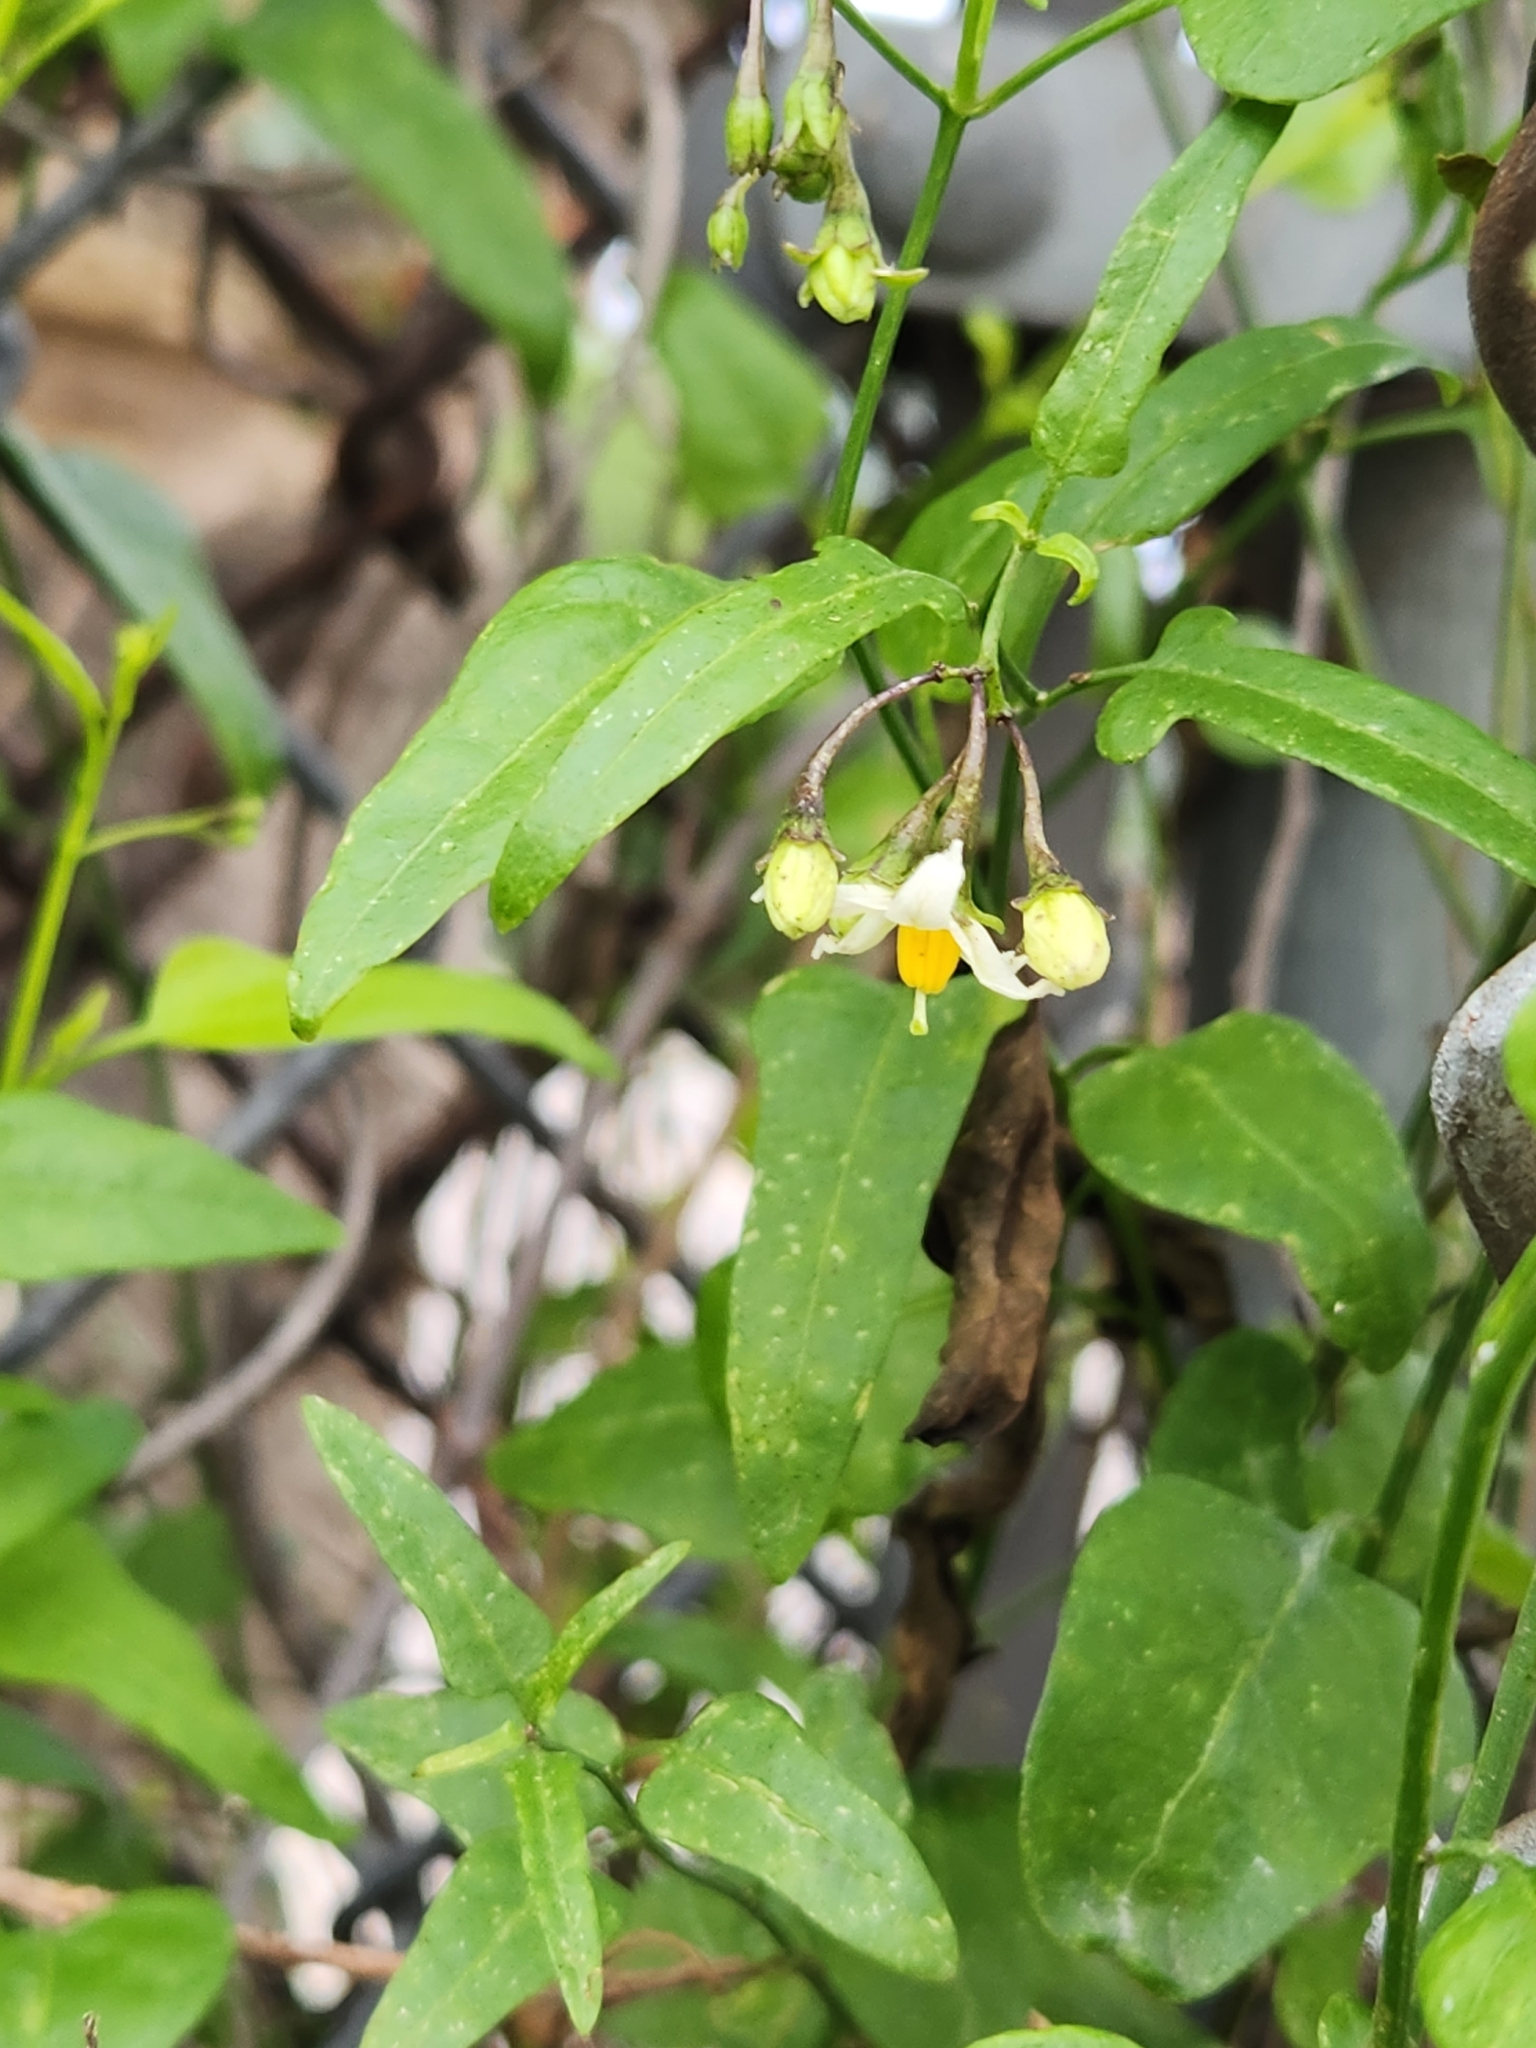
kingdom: Plantae
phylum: Tracheophyta
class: Magnoliopsida
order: Solanales
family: Solanaceae
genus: Solanum
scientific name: Solanum triquetrum
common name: Texas nightshade
